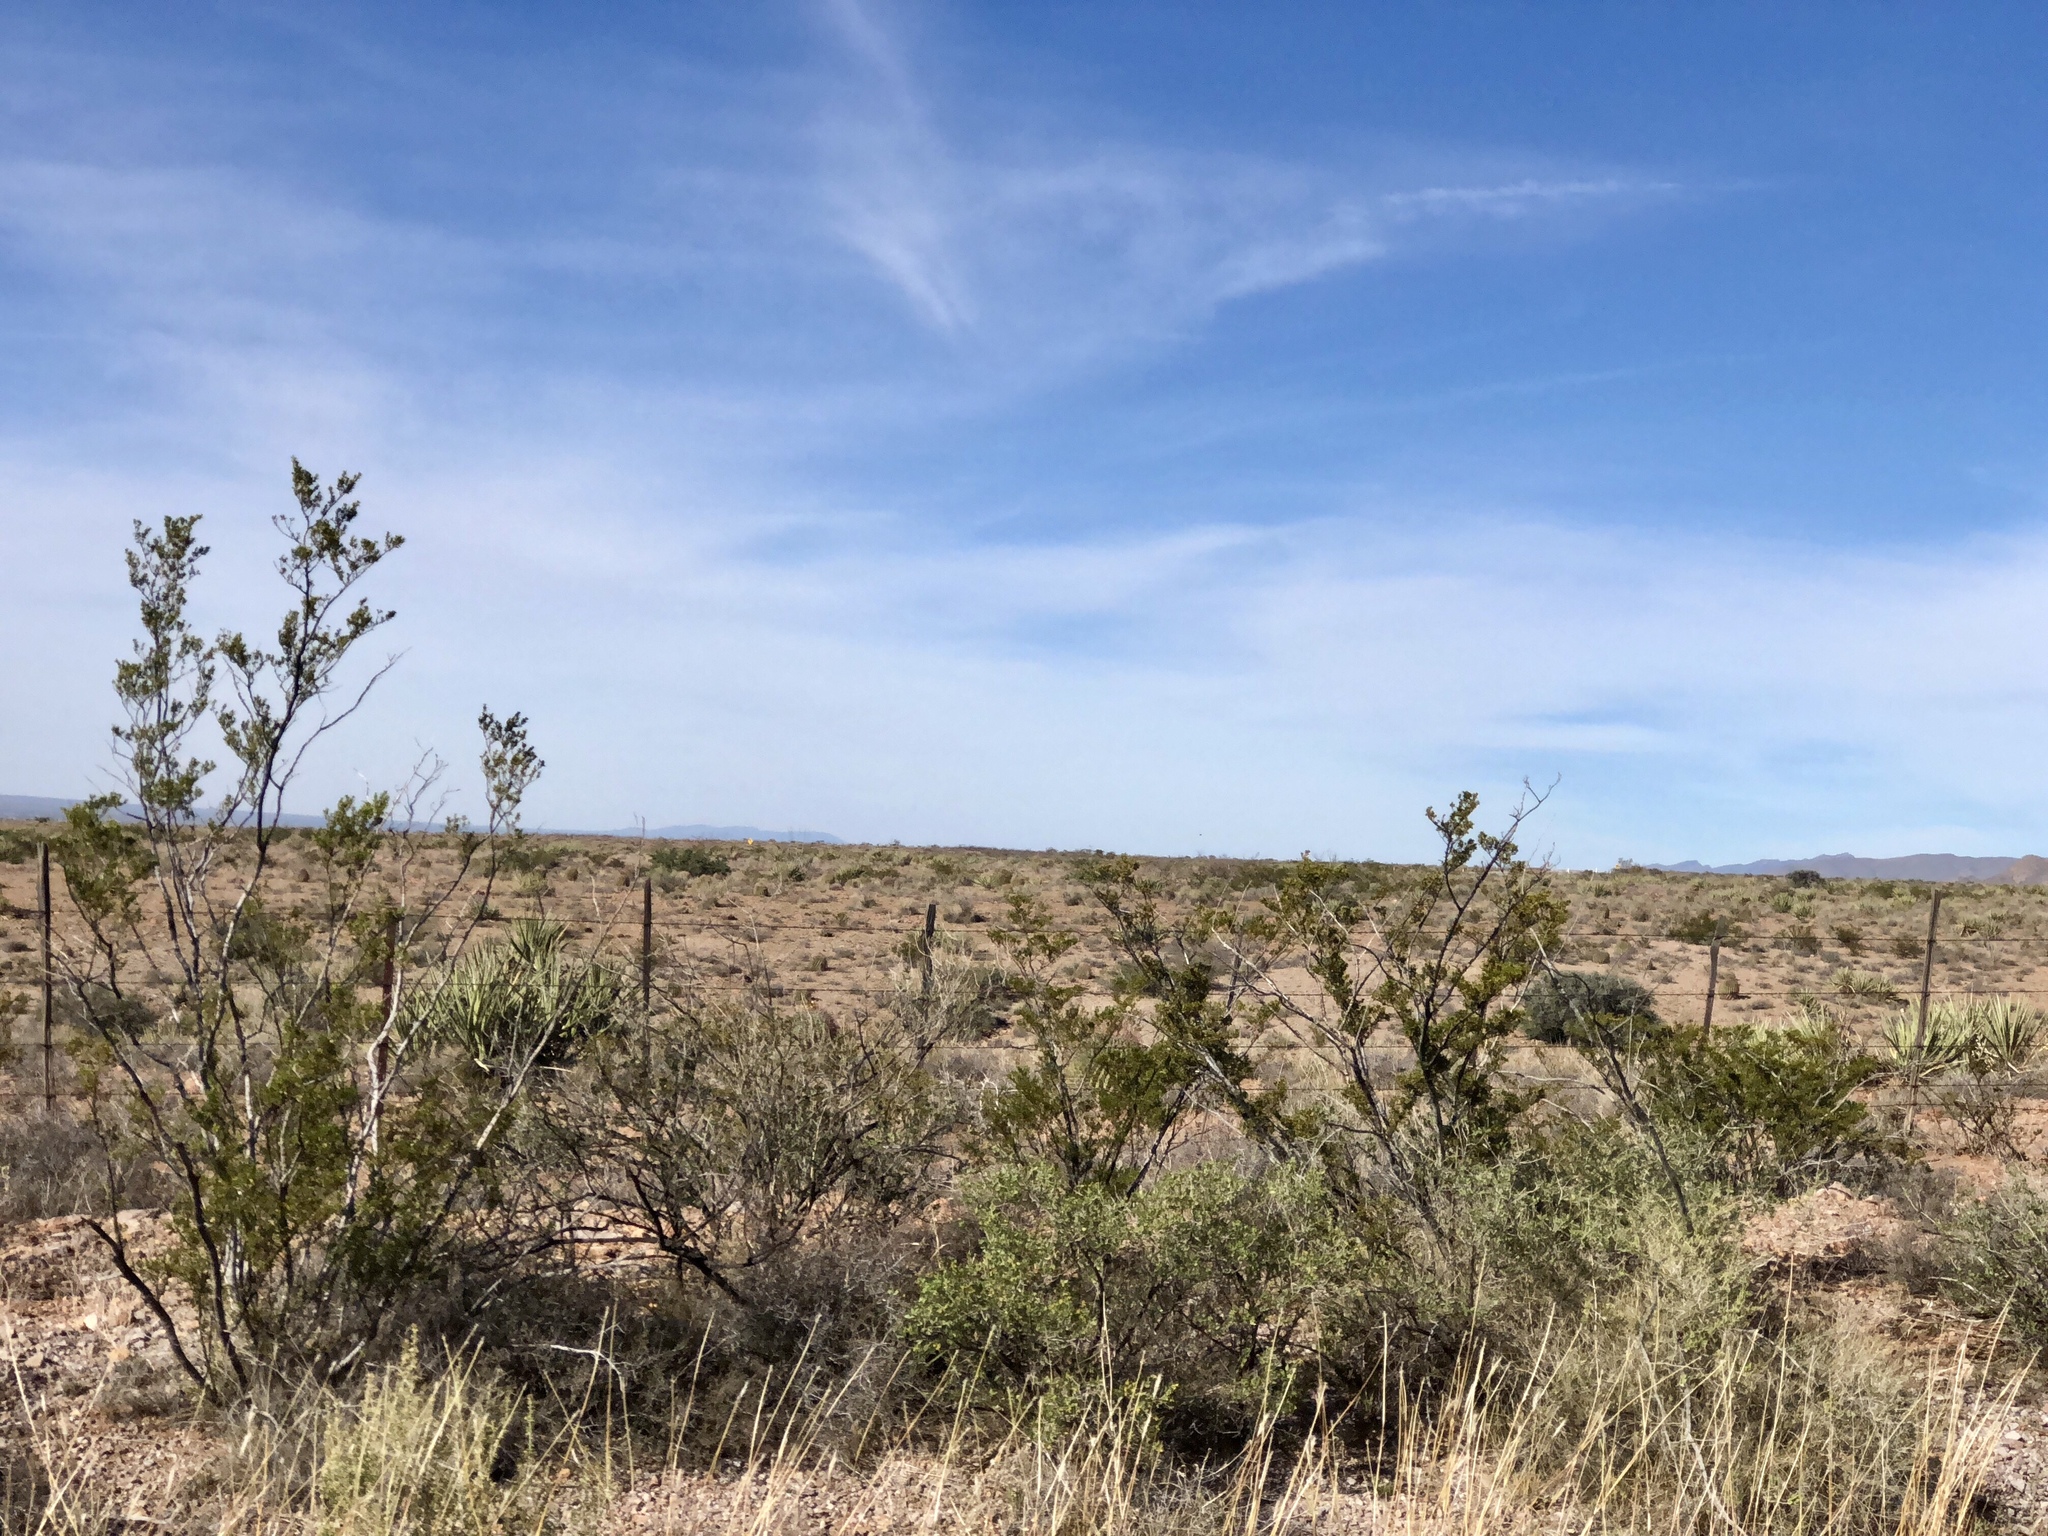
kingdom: Plantae
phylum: Tracheophyta
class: Magnoliopsida
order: Zygophyllales
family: Zygophyllaceae
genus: Larrea
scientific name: Larrea tridentata
